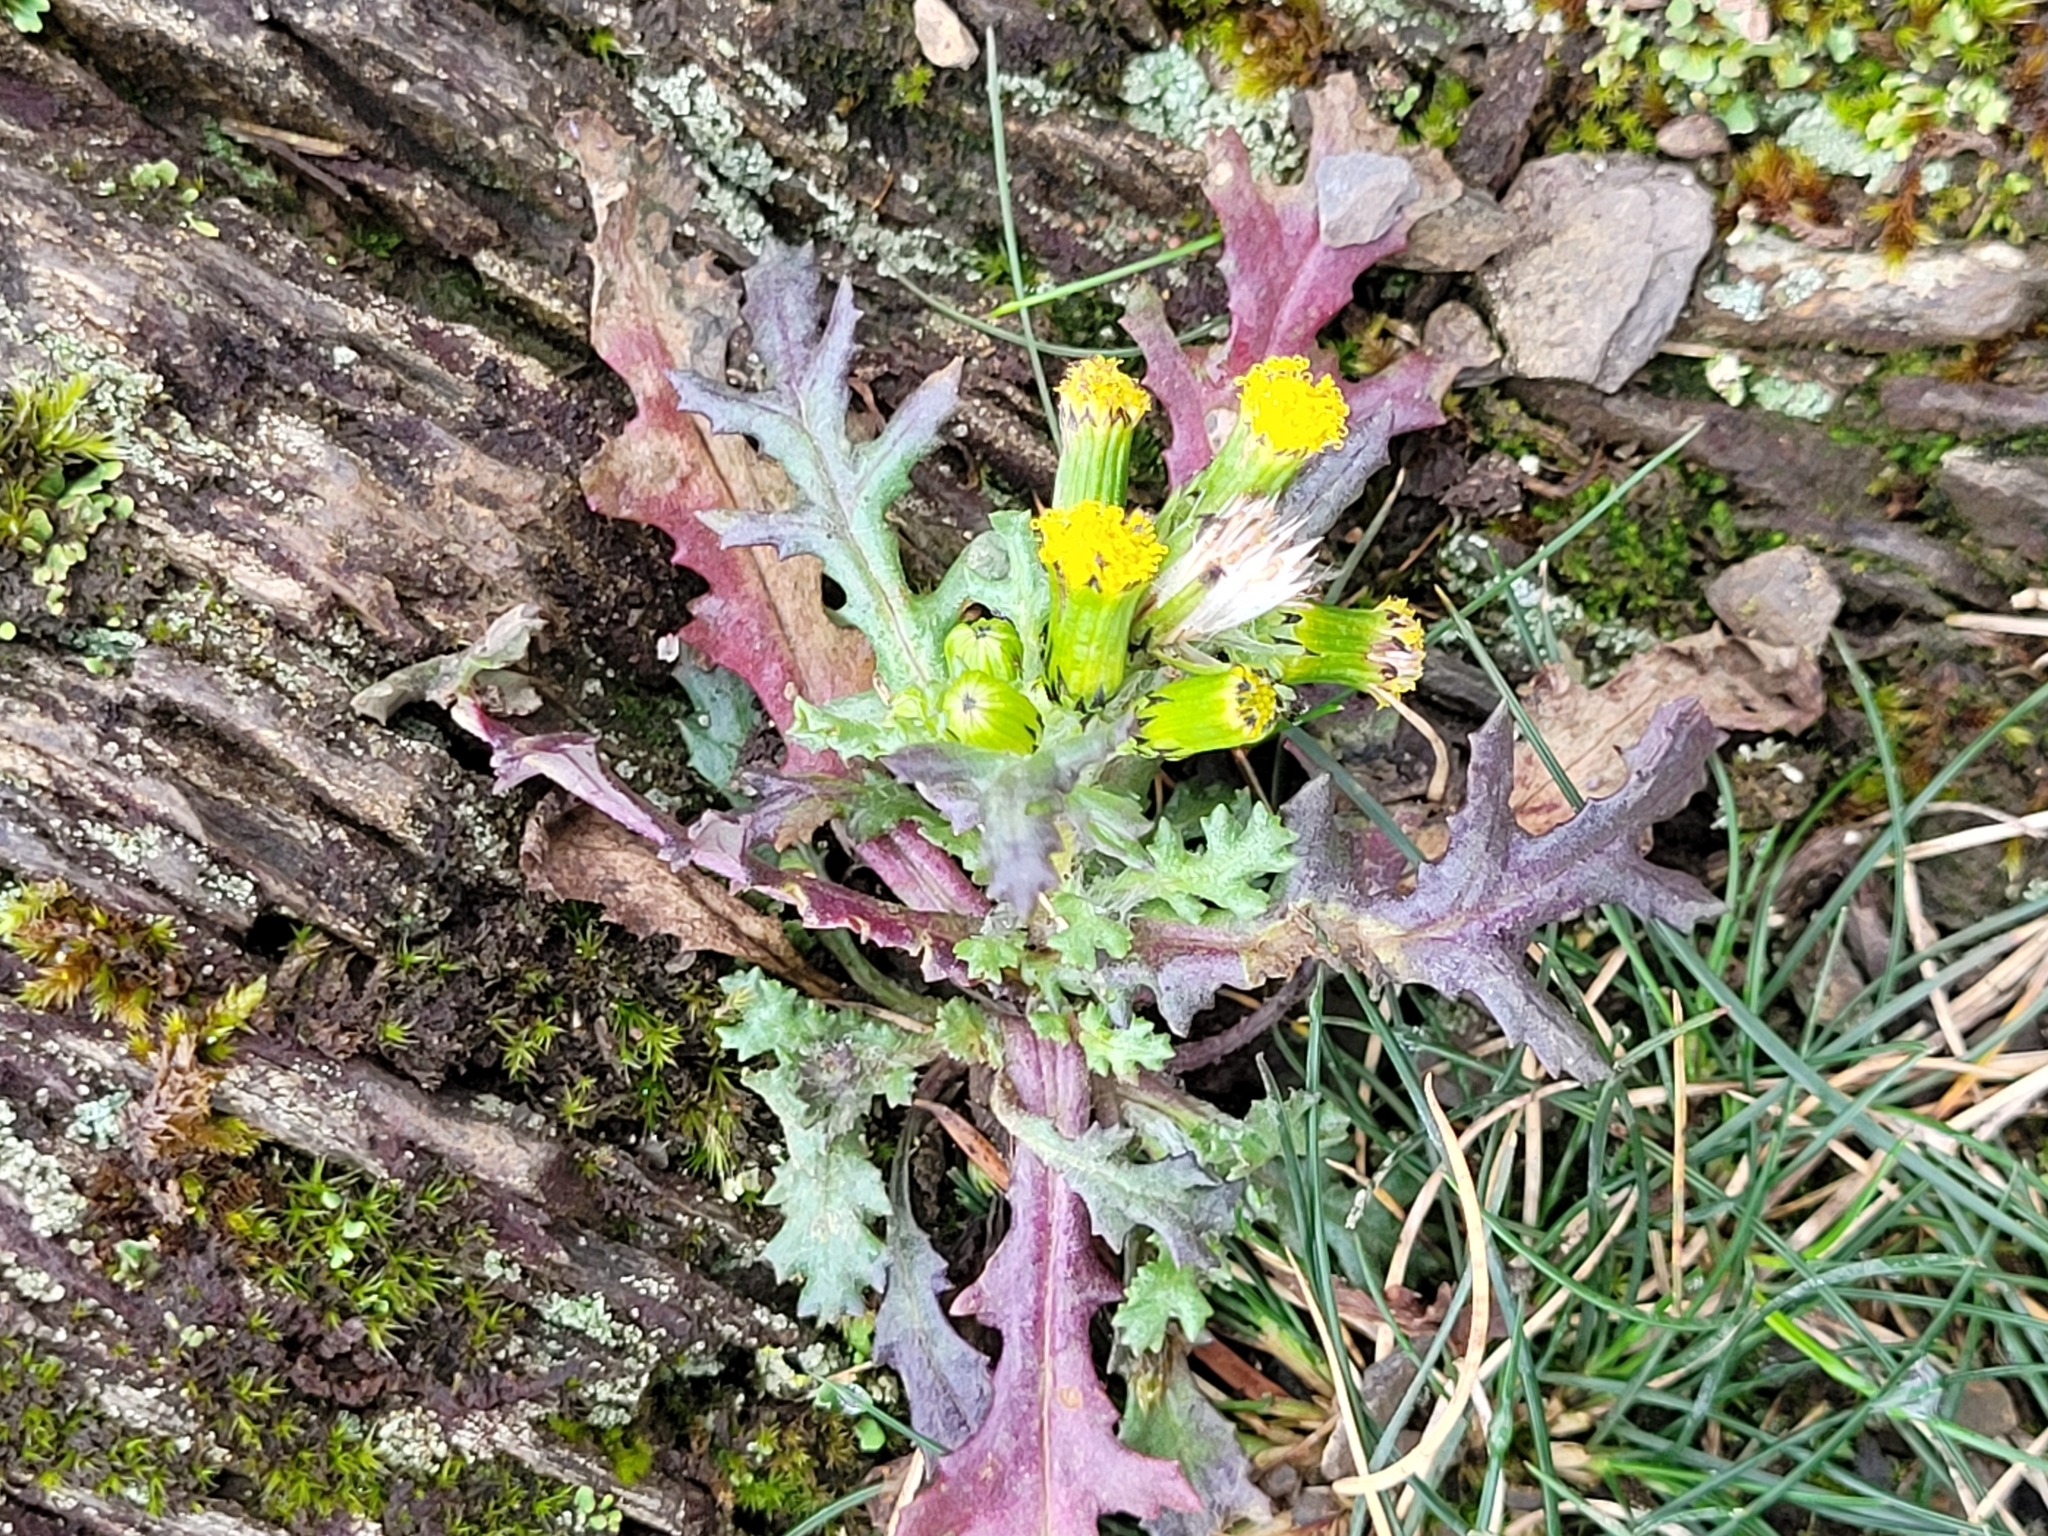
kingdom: Plantae
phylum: Tracheophyta
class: Magnoliopsida
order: Asterales
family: Asteraceae
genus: Senecio
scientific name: Senecio vulgaris
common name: Old-man-in-the-spring
